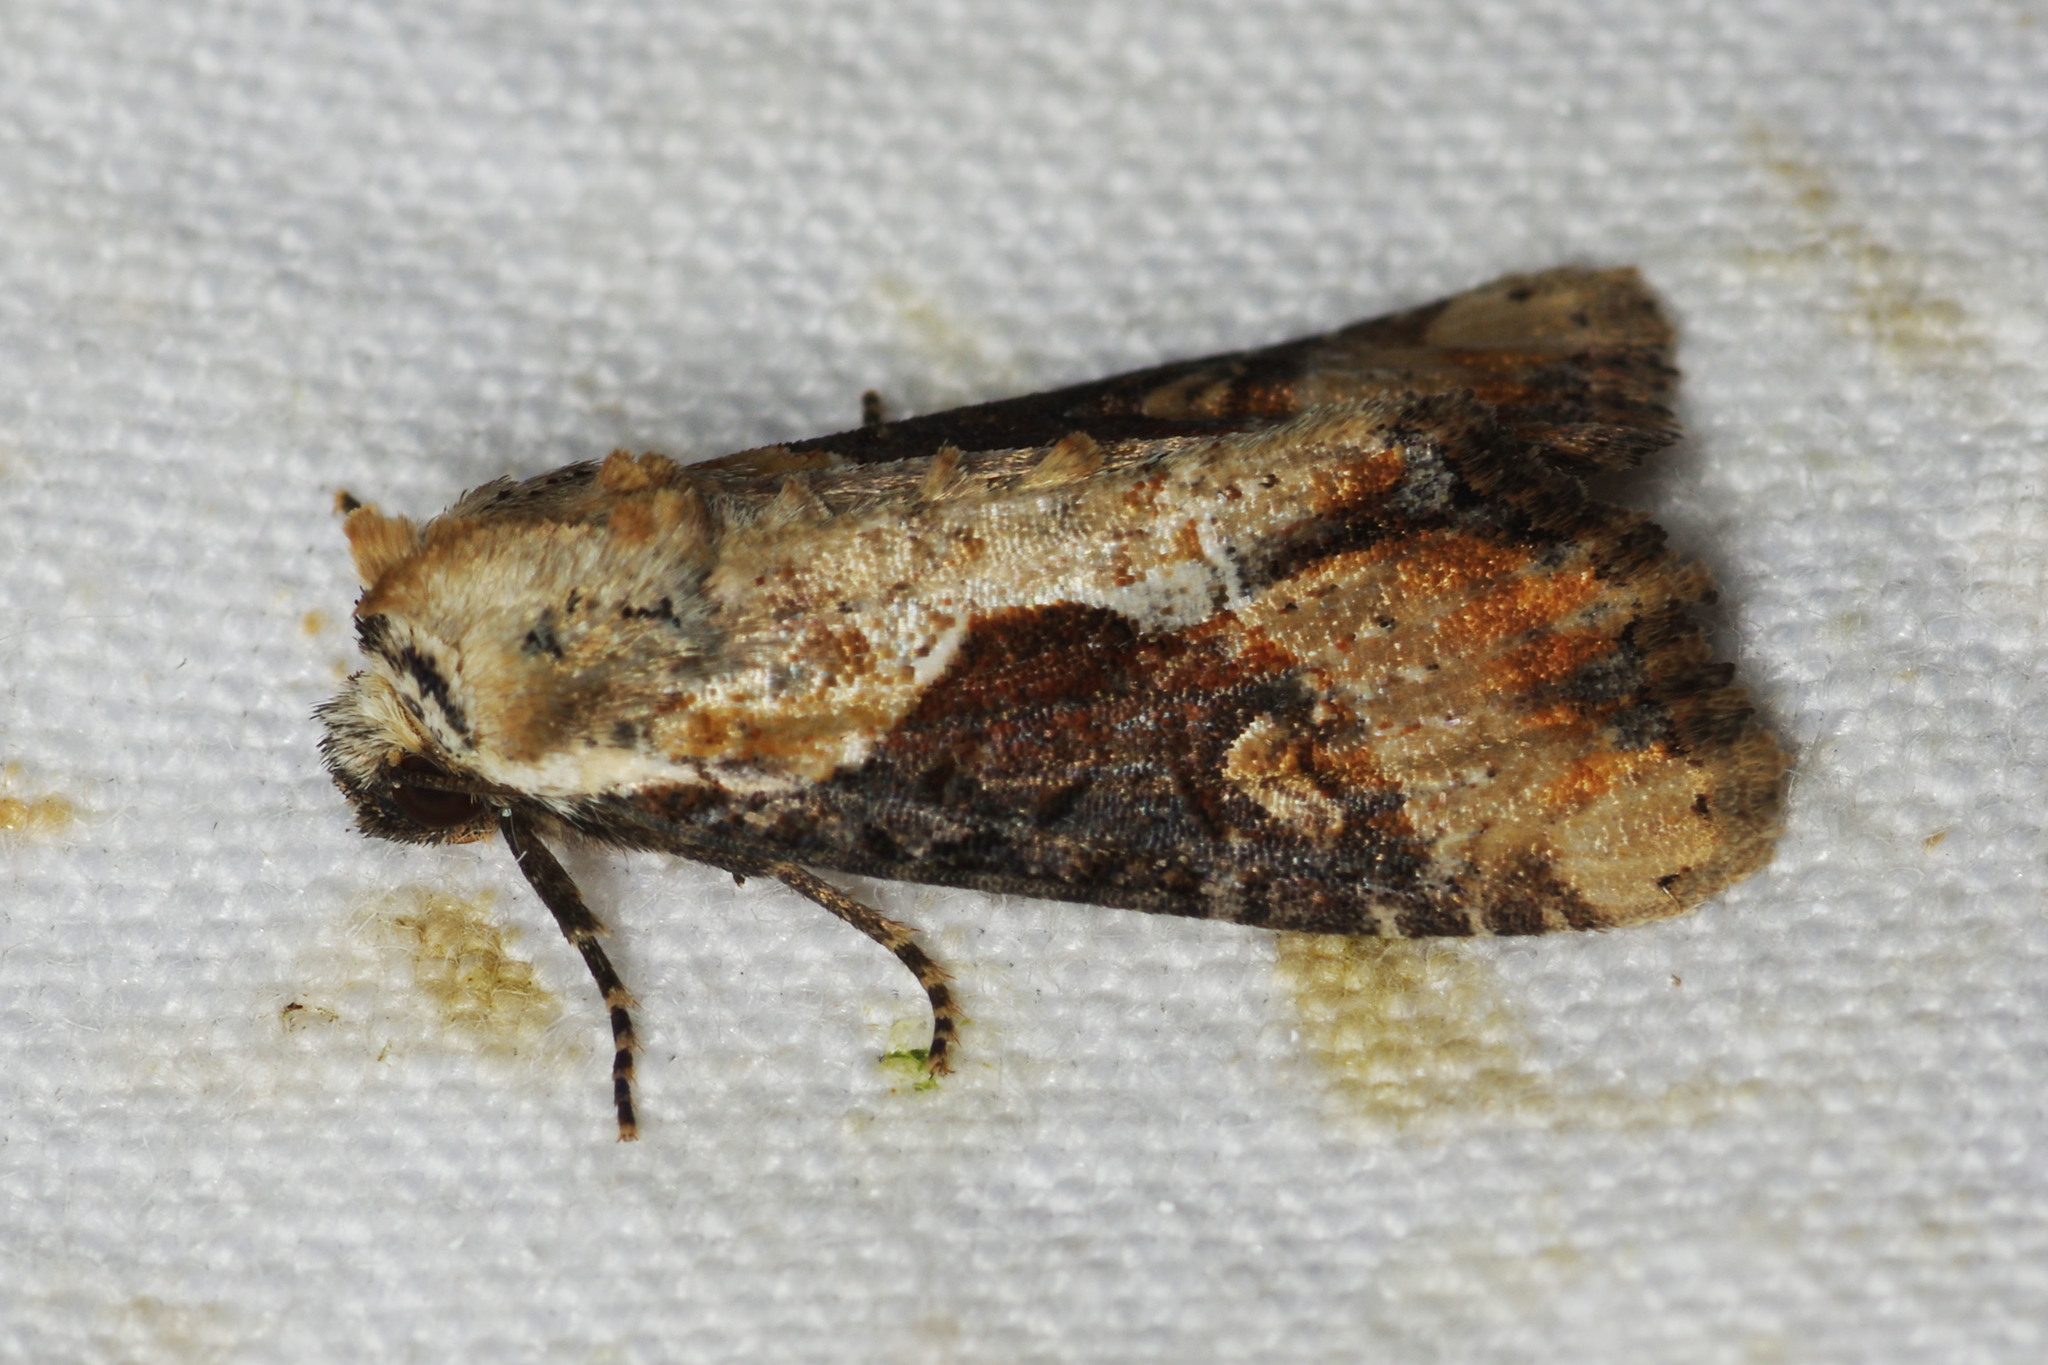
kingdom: Animalia
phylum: Arthropoda
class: Insecta
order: Lepidoptera
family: Noctuidae
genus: Lateroligia
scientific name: Lateroligia ophiogramma
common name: Double lobed
